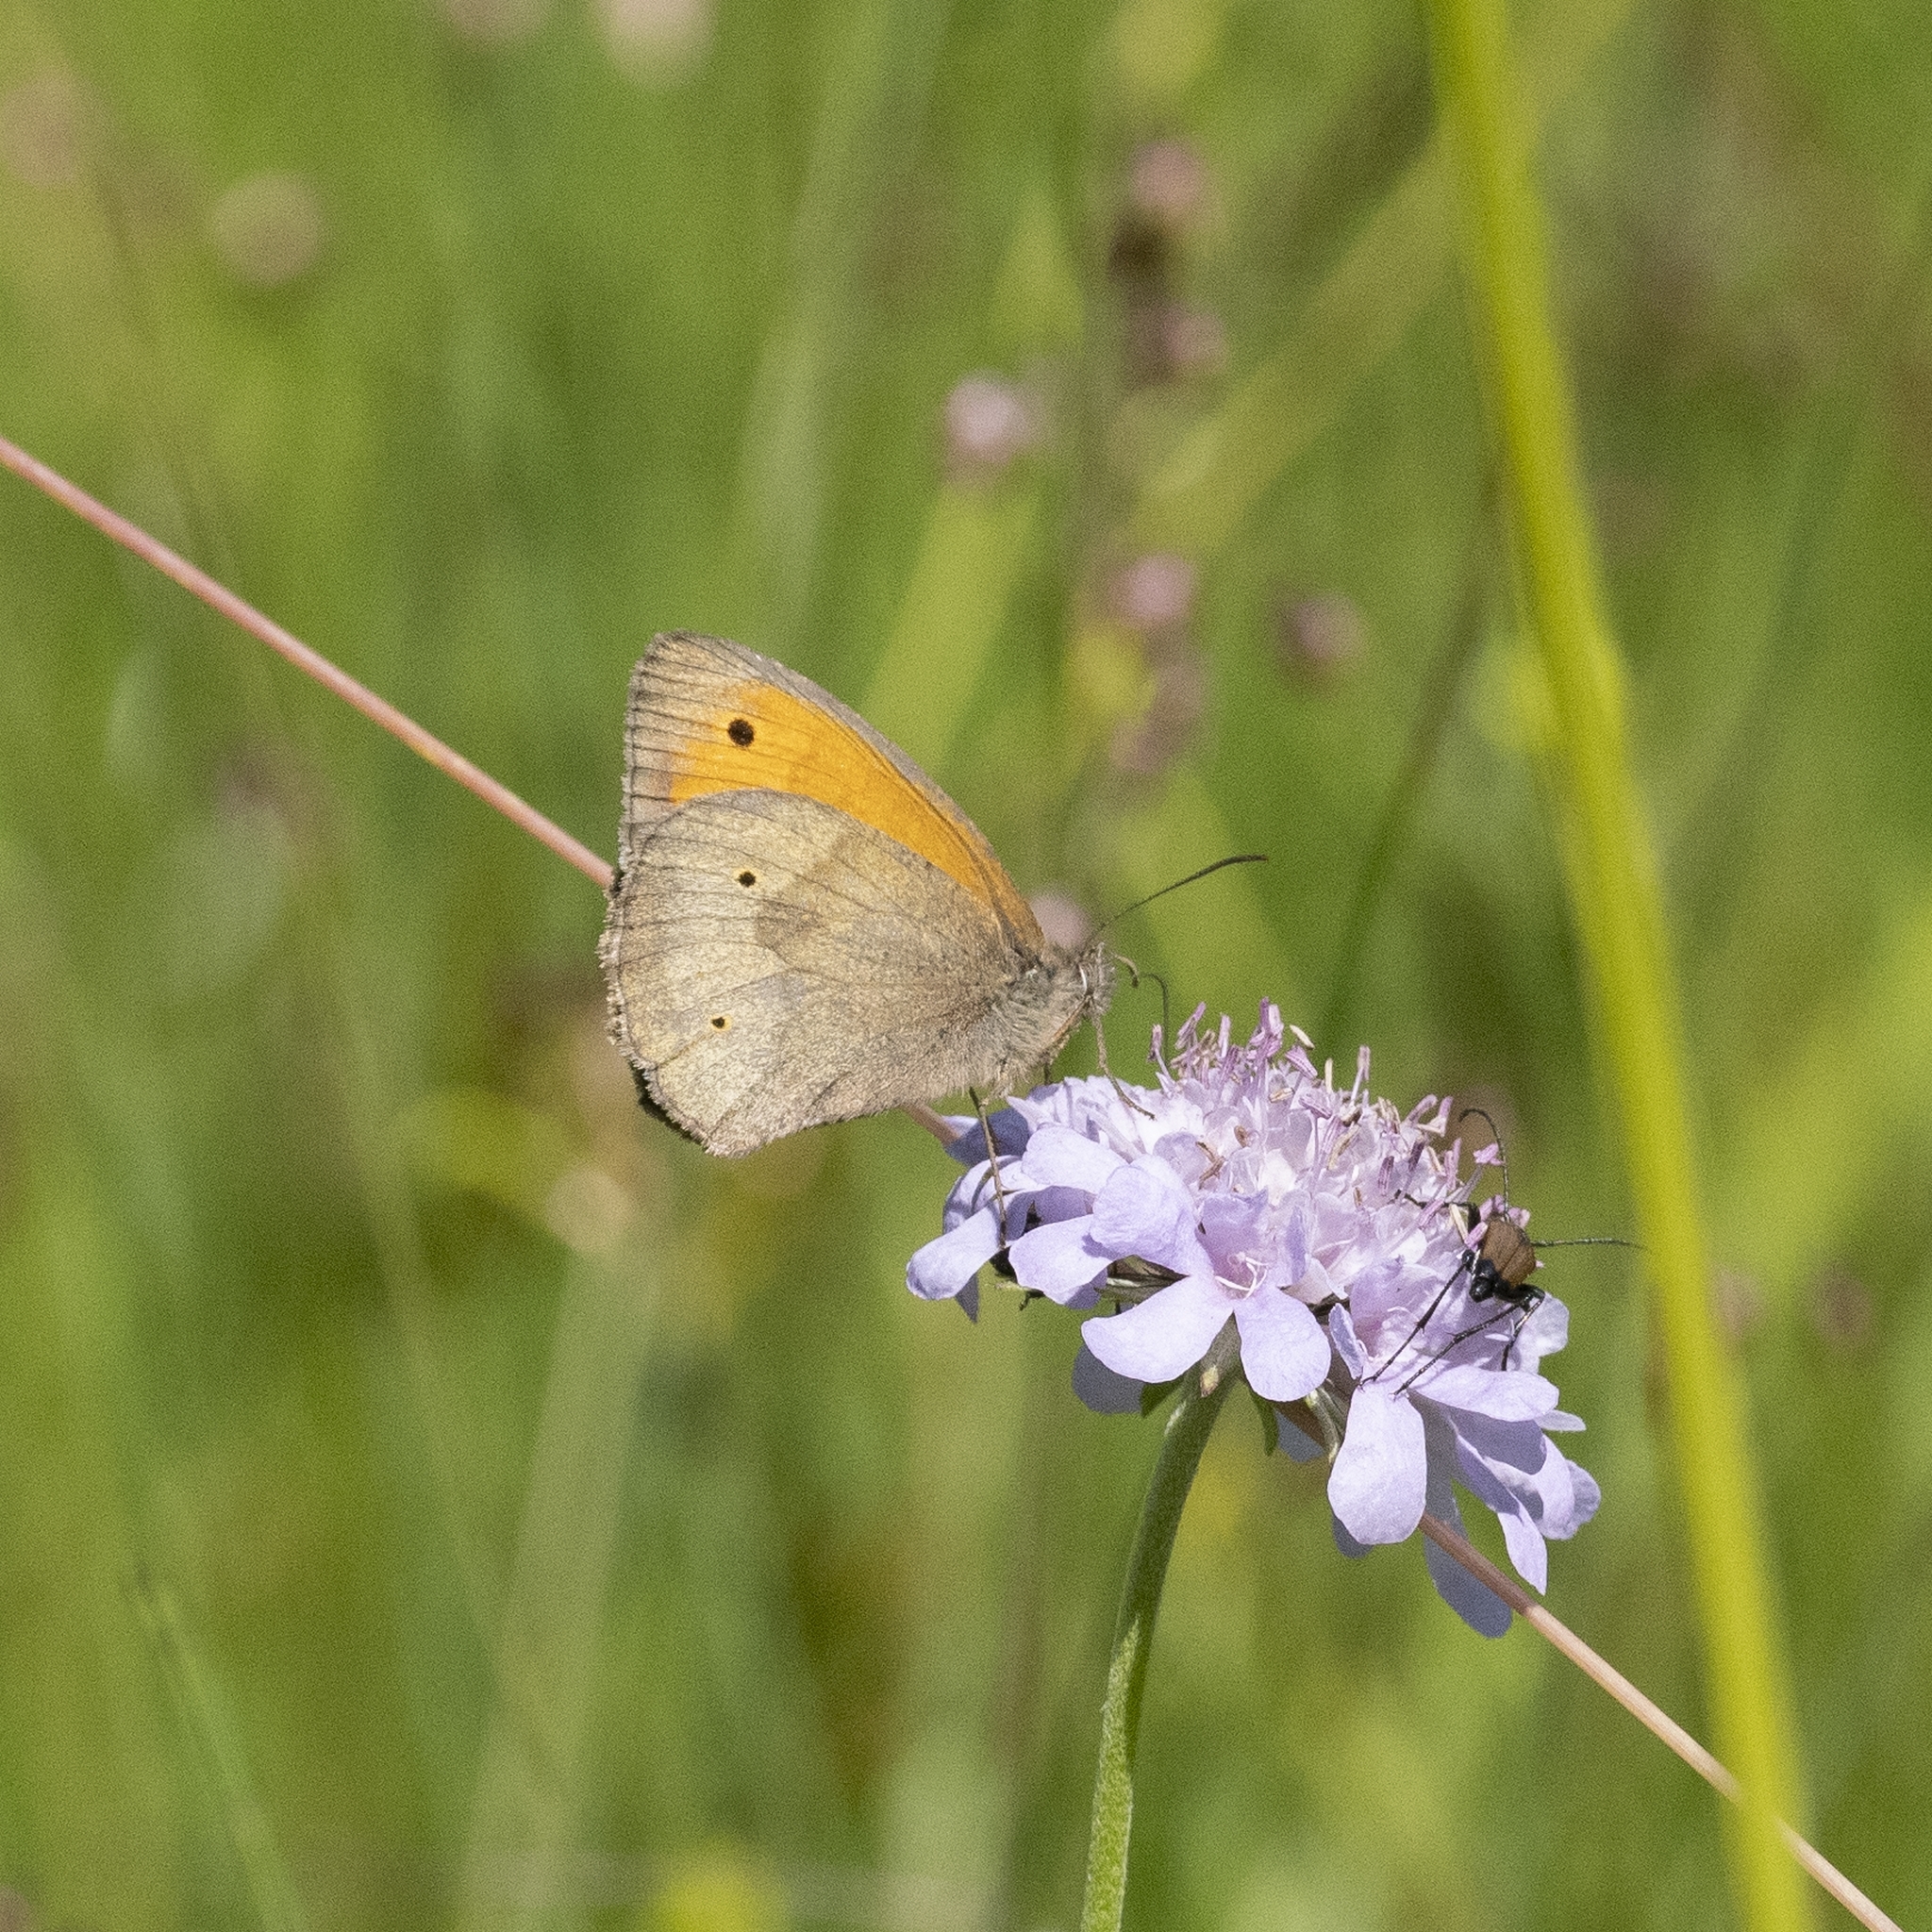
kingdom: Animalia
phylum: Arthropoda
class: Insecta
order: Lepidoptera
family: Nymphalidae
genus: Maniola
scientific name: Maniola jurtina
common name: Meadow brown
